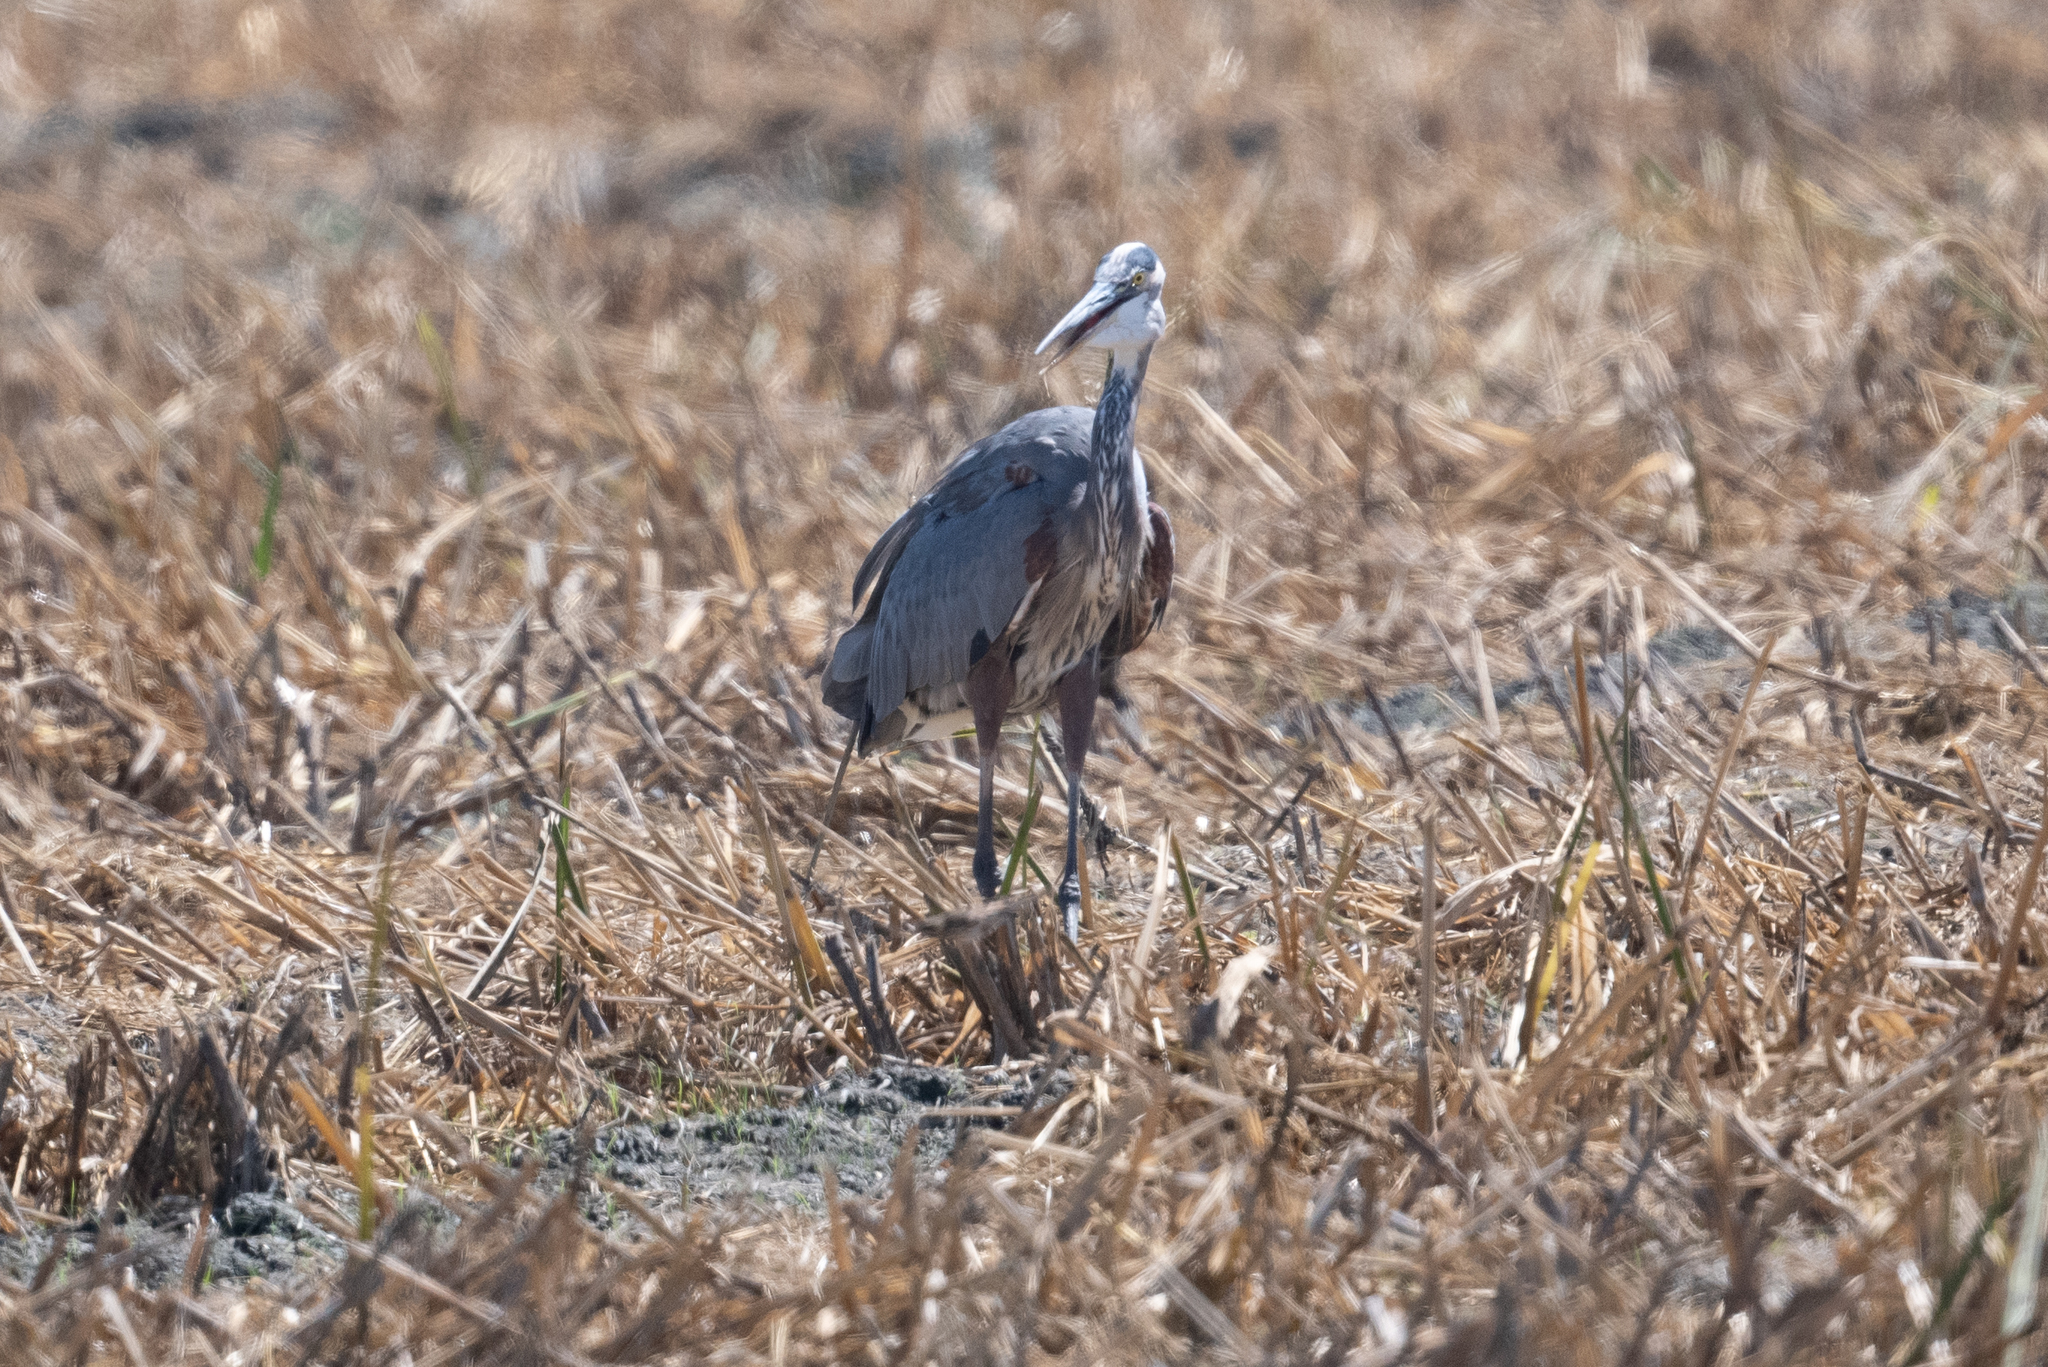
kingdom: Animalia
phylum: Chordata
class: Aves
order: Pelecaniformes
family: Ardeidae
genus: Ardea
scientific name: Ardea herodias
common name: Great blue heron
